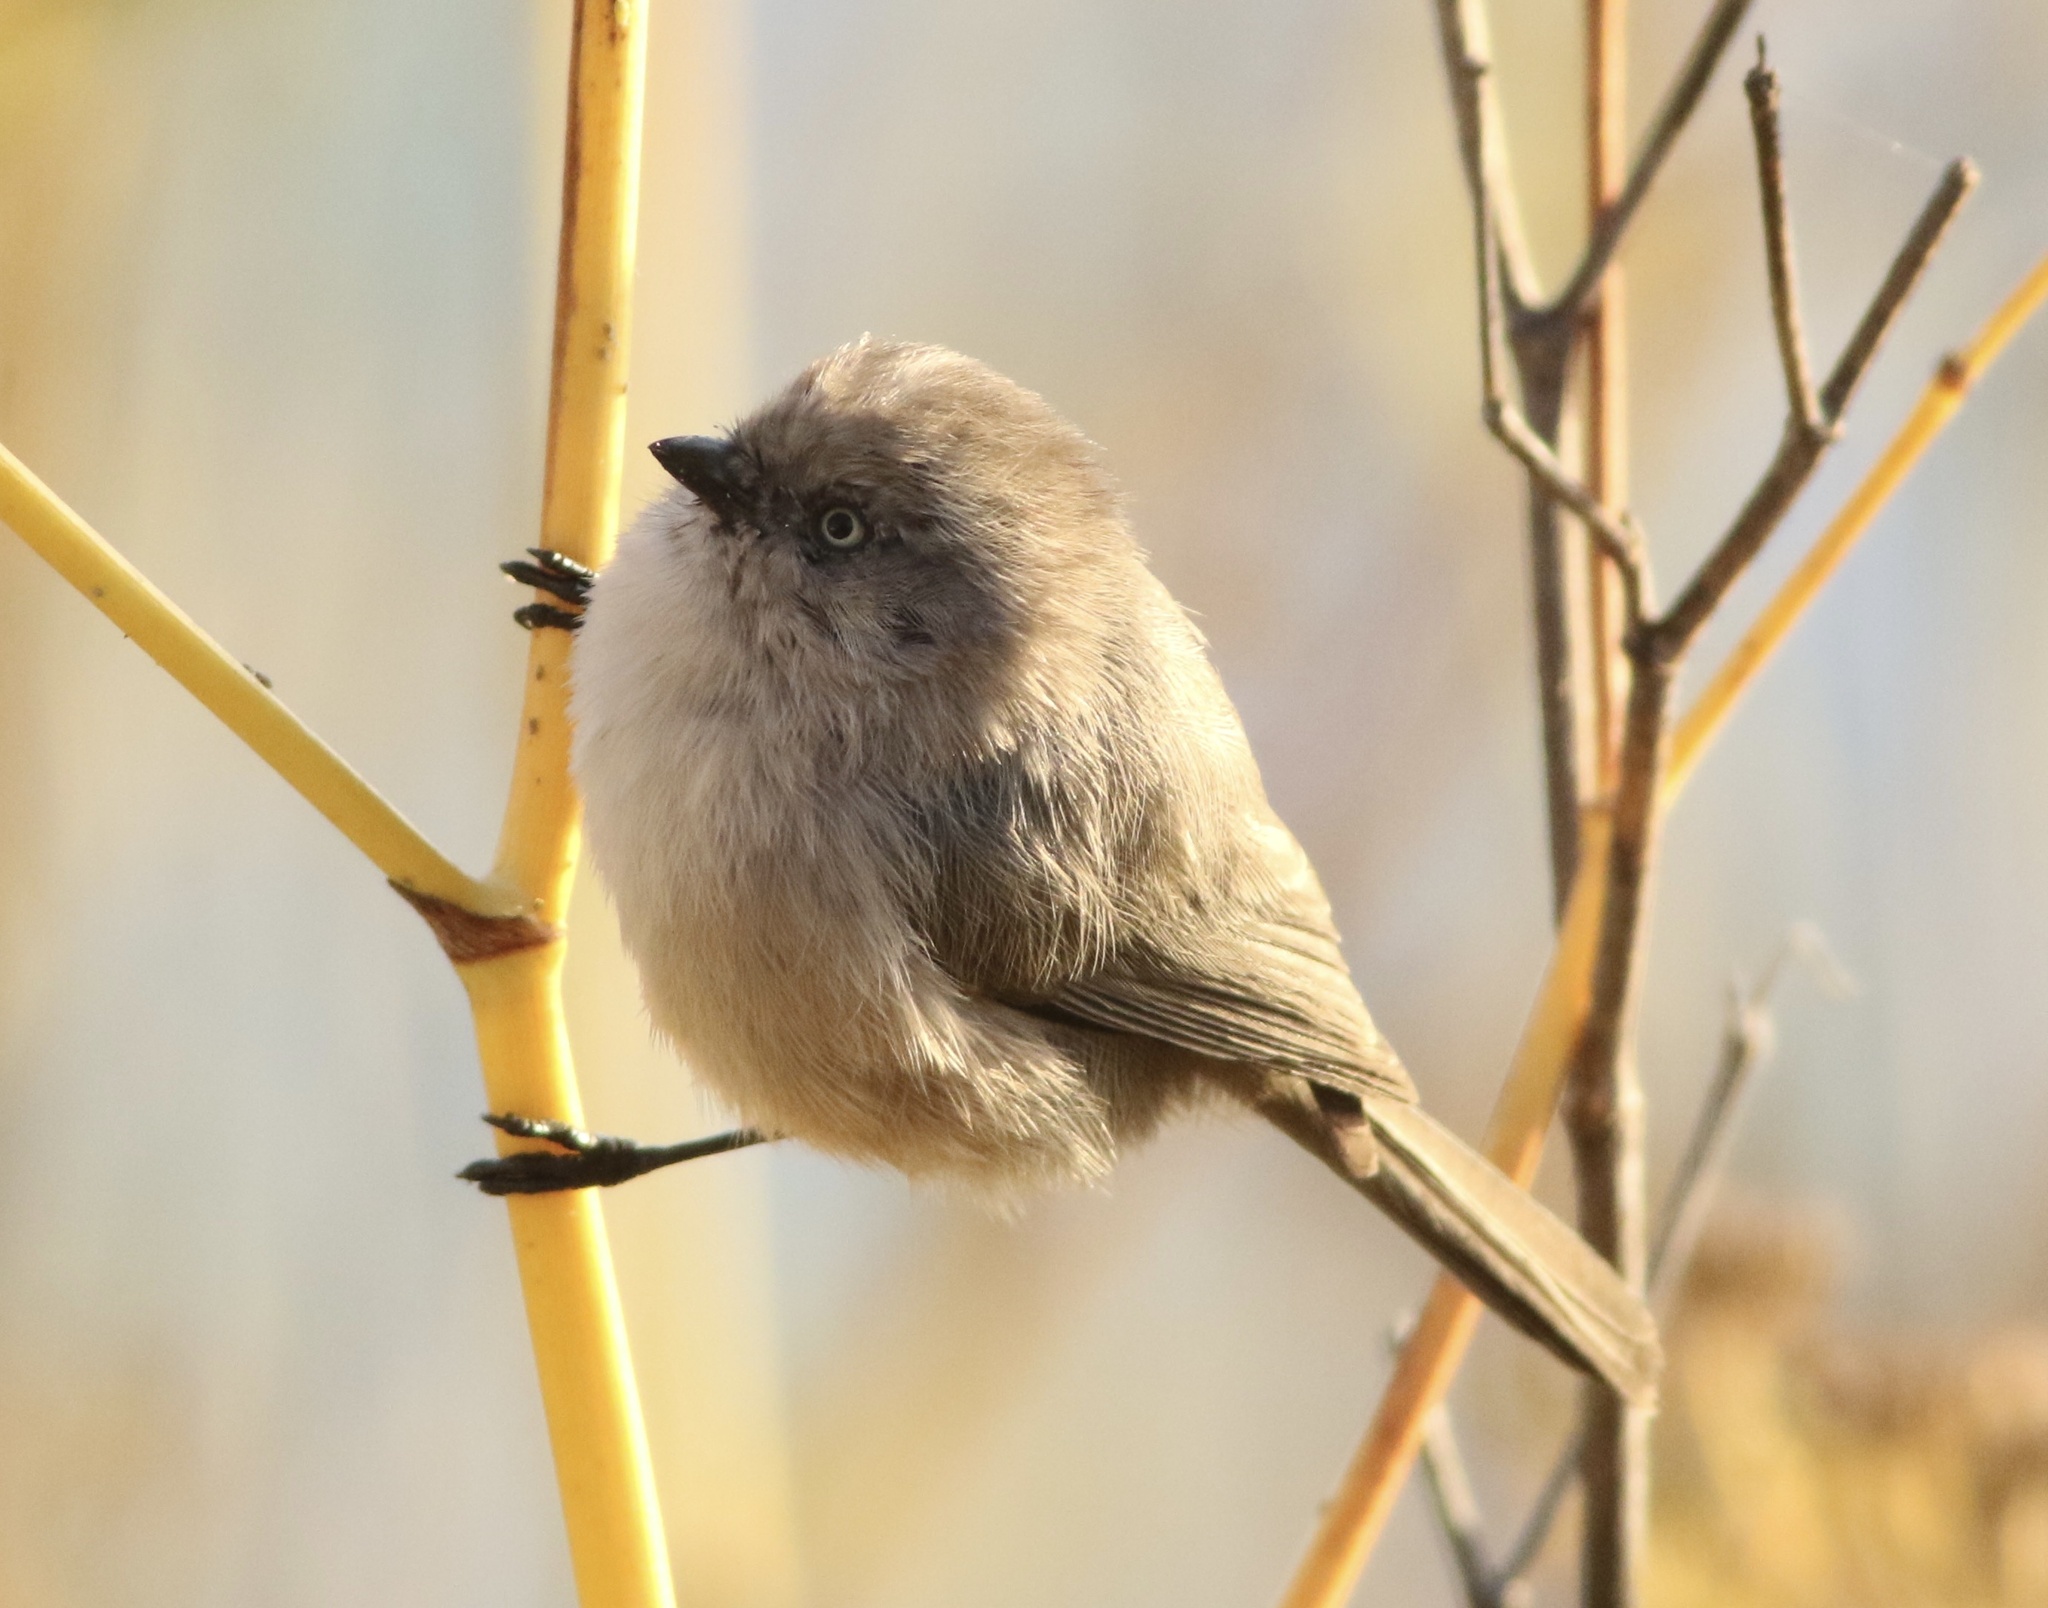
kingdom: Animalia
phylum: Chordata
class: Aves
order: Passeriformes
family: Aegithalidae
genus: Psaltriparus
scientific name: Psaltriparus minimus
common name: American bushtit
